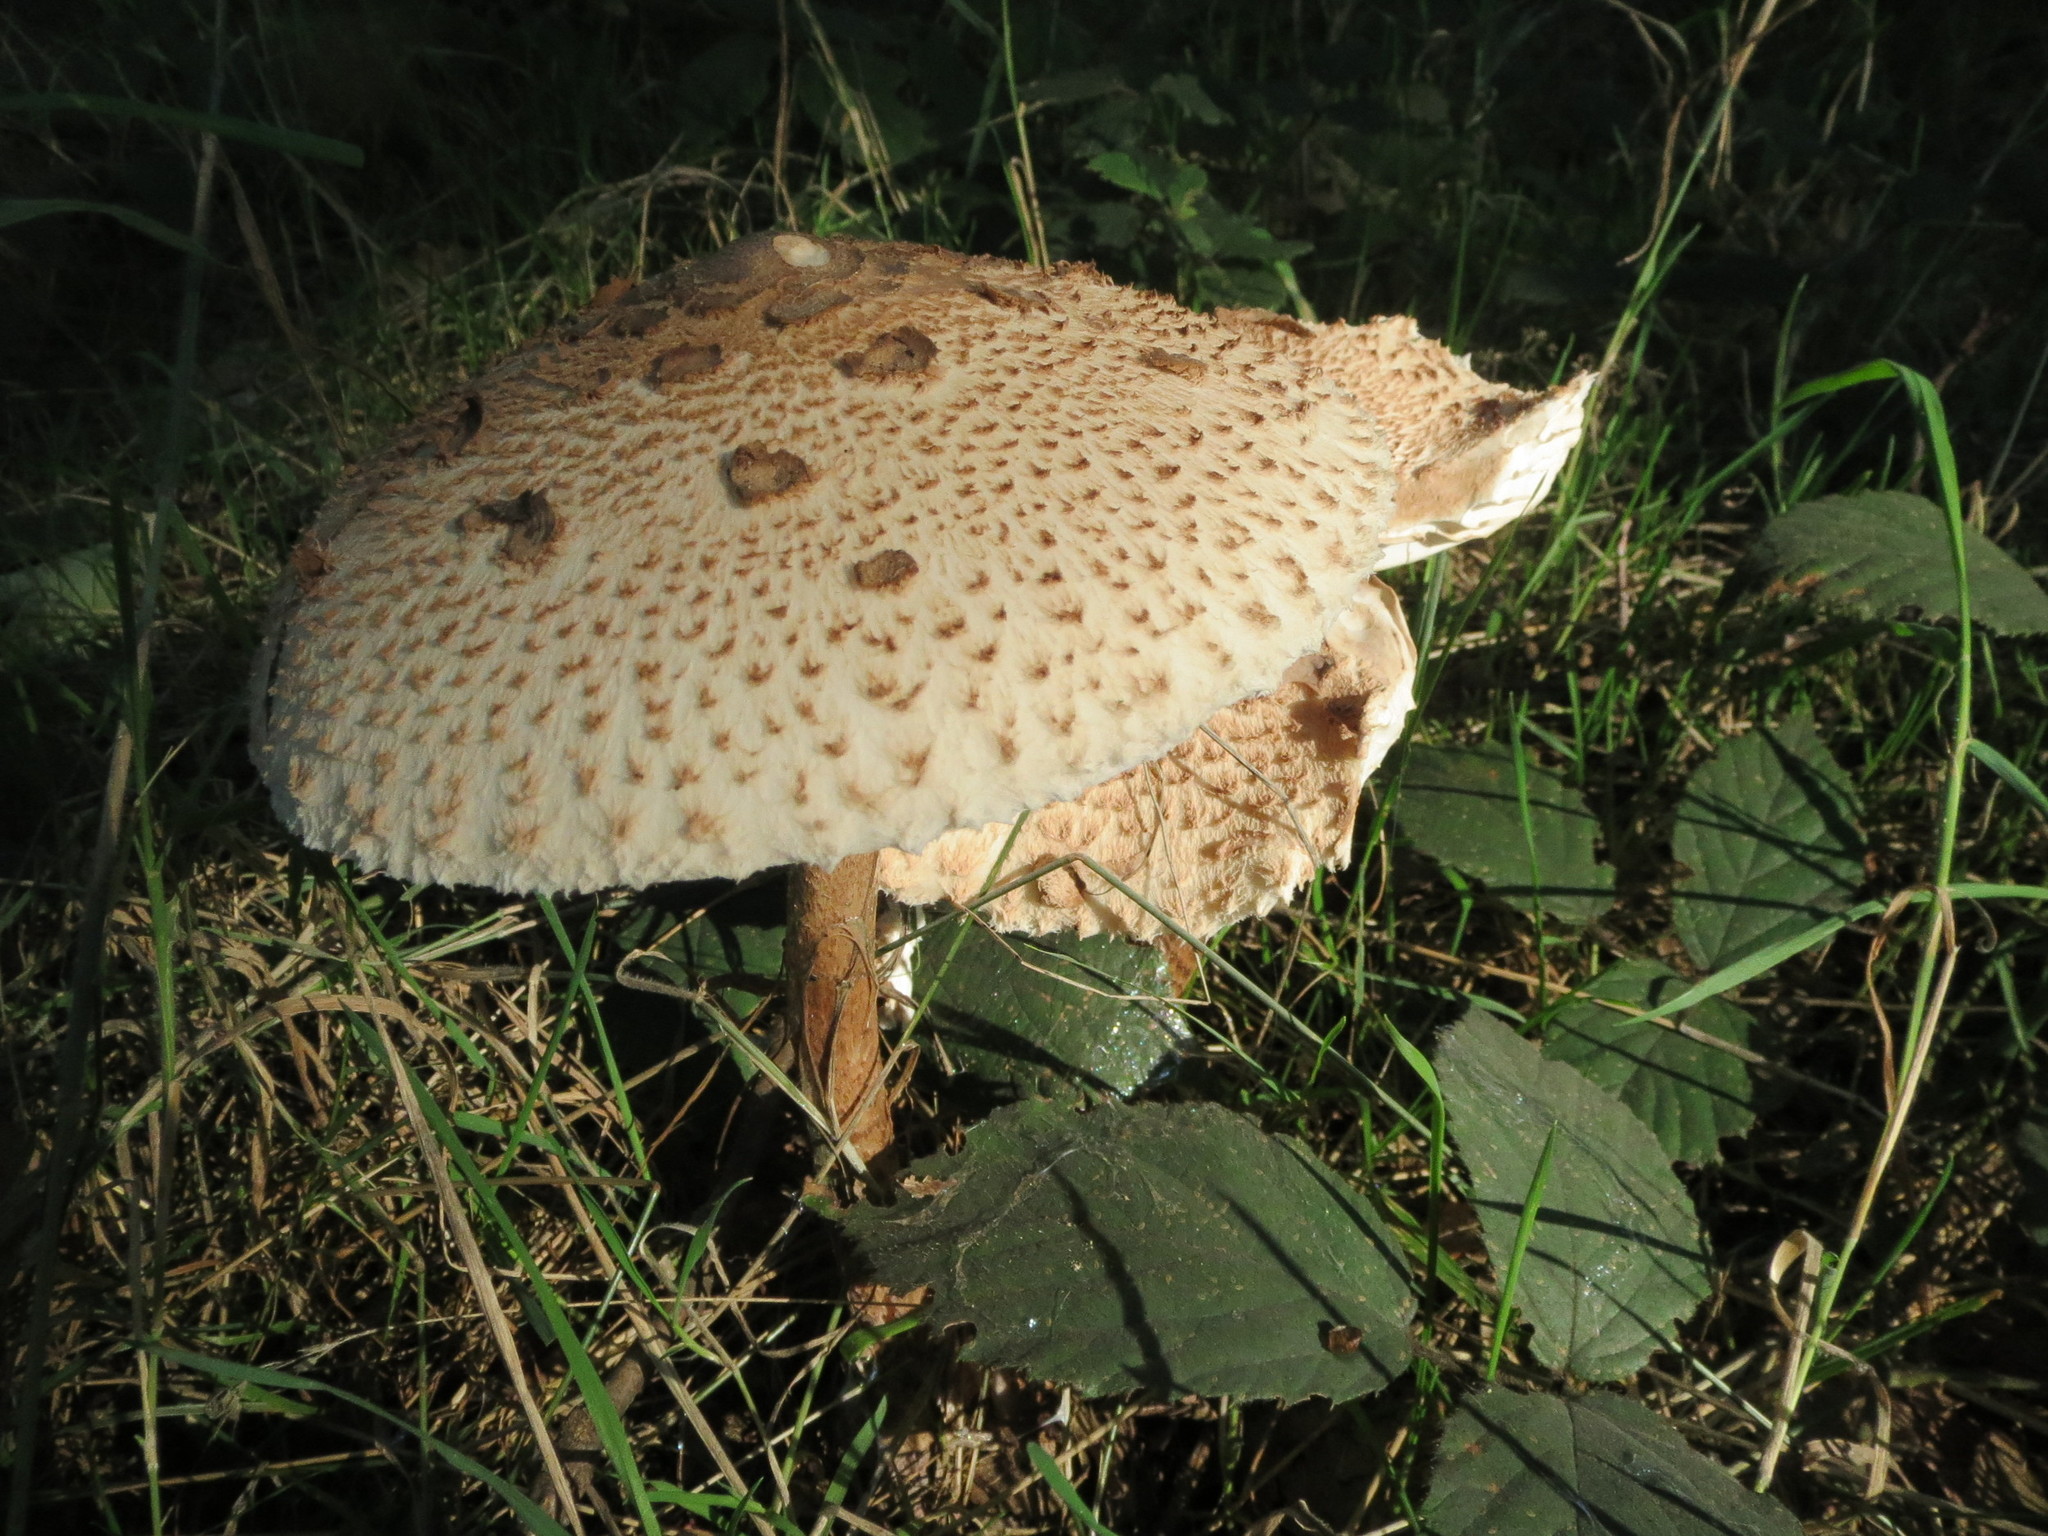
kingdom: Fungi
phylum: Basidiomycota
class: Agaricomycetes
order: Agaricales
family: Agaricaceae
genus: Macrolepiota
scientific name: Macrolepiota procera
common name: Parasol
